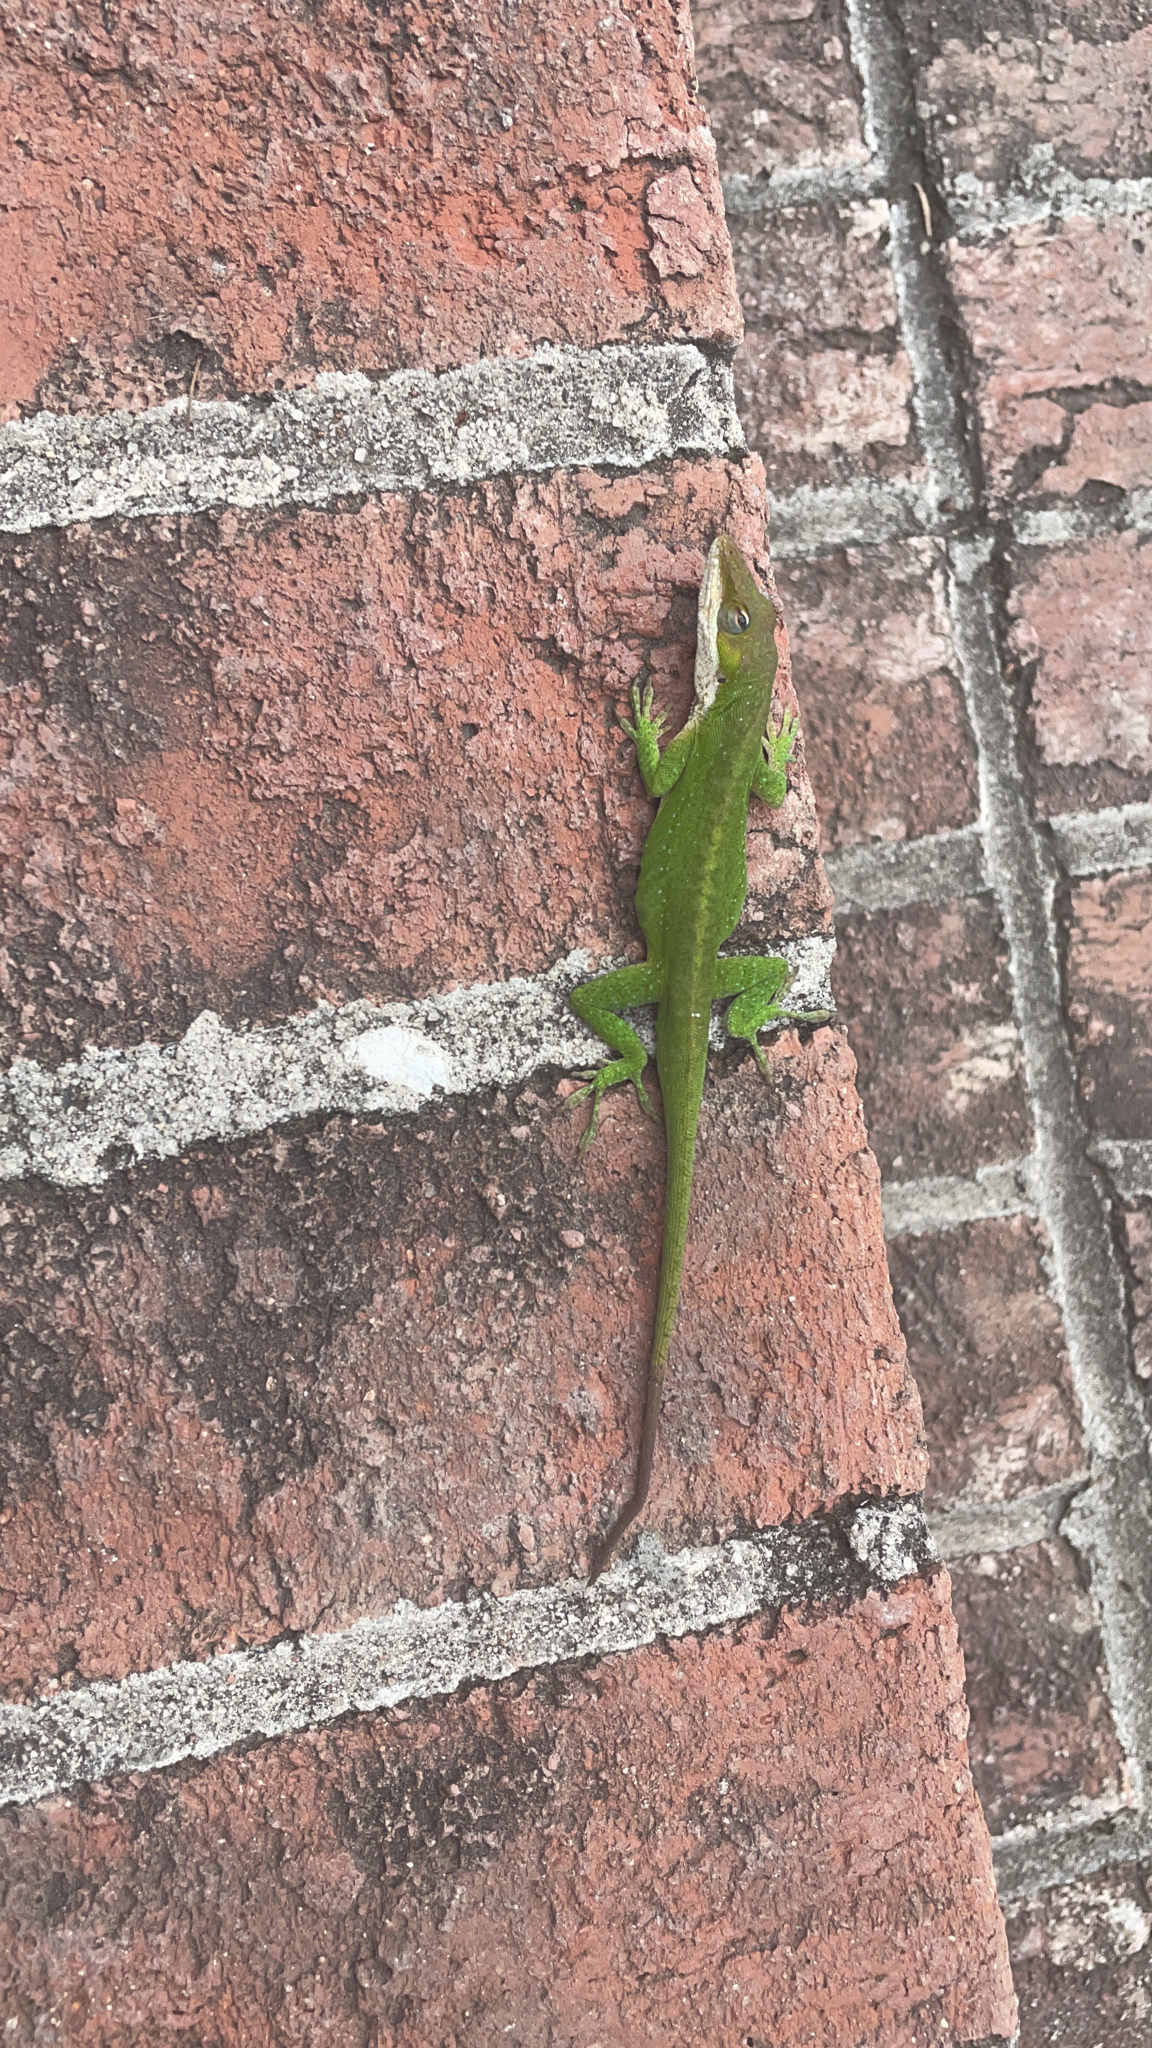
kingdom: Animalia
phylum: Chordata
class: Squamata
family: Dactyloidae
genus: Anolis
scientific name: Anolis carolinensis
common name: Green anole
